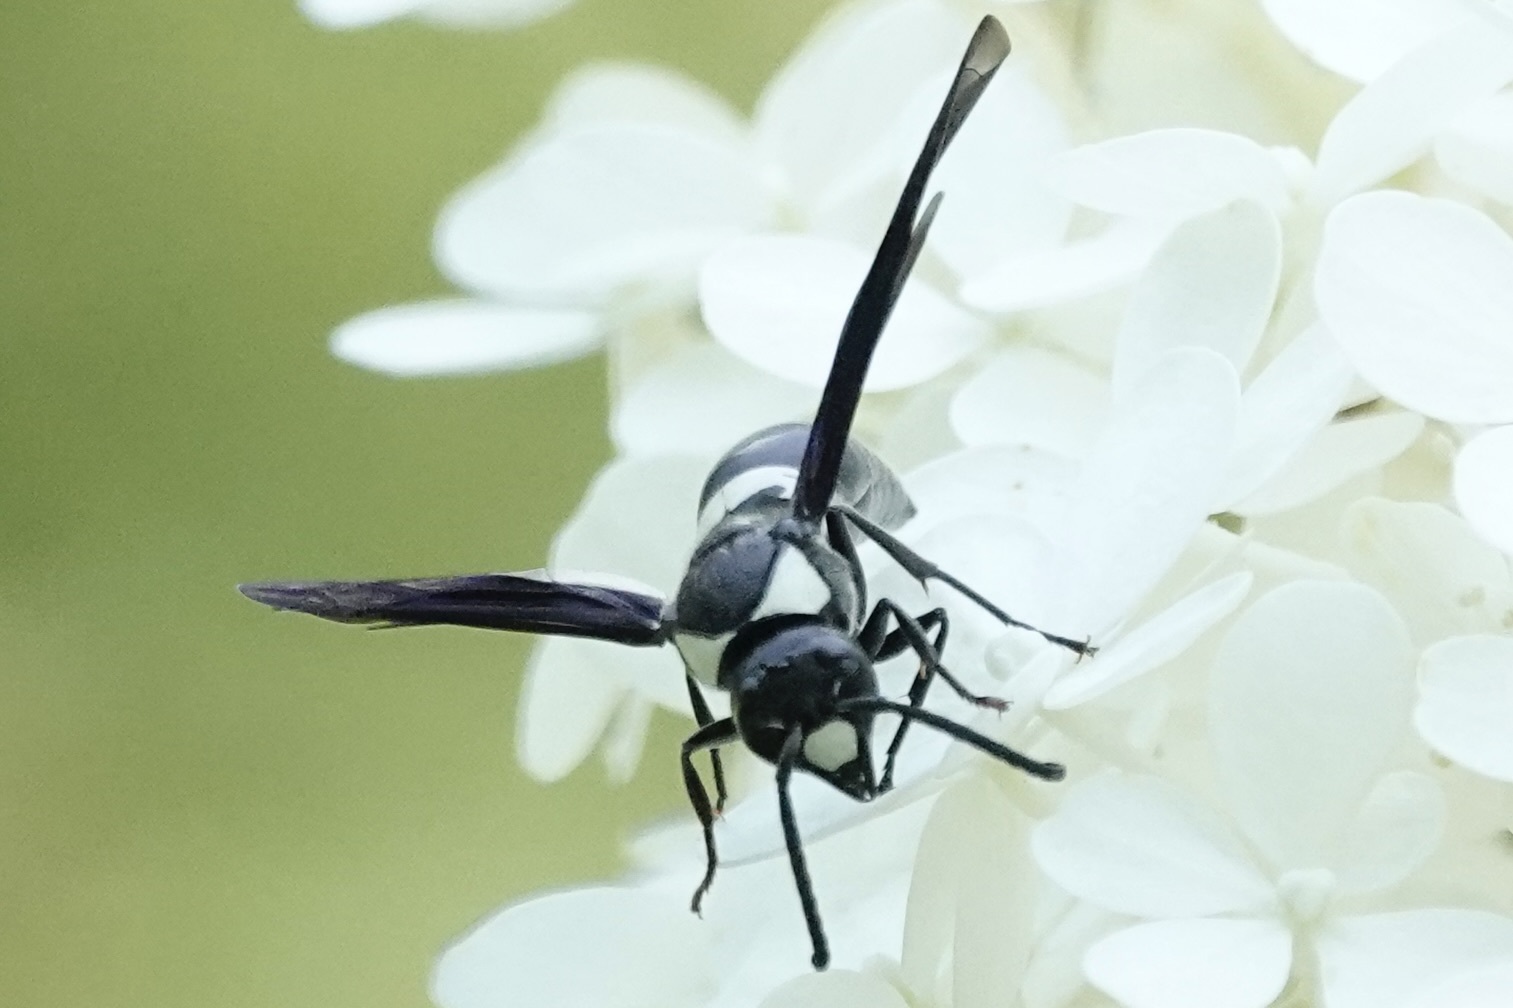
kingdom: Animalia
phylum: Arthropoda
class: Insecta
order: Hymenoptera
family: Eumenidae
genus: Monobia
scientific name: Monobia quadridens
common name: Four-toothed mason wasp
